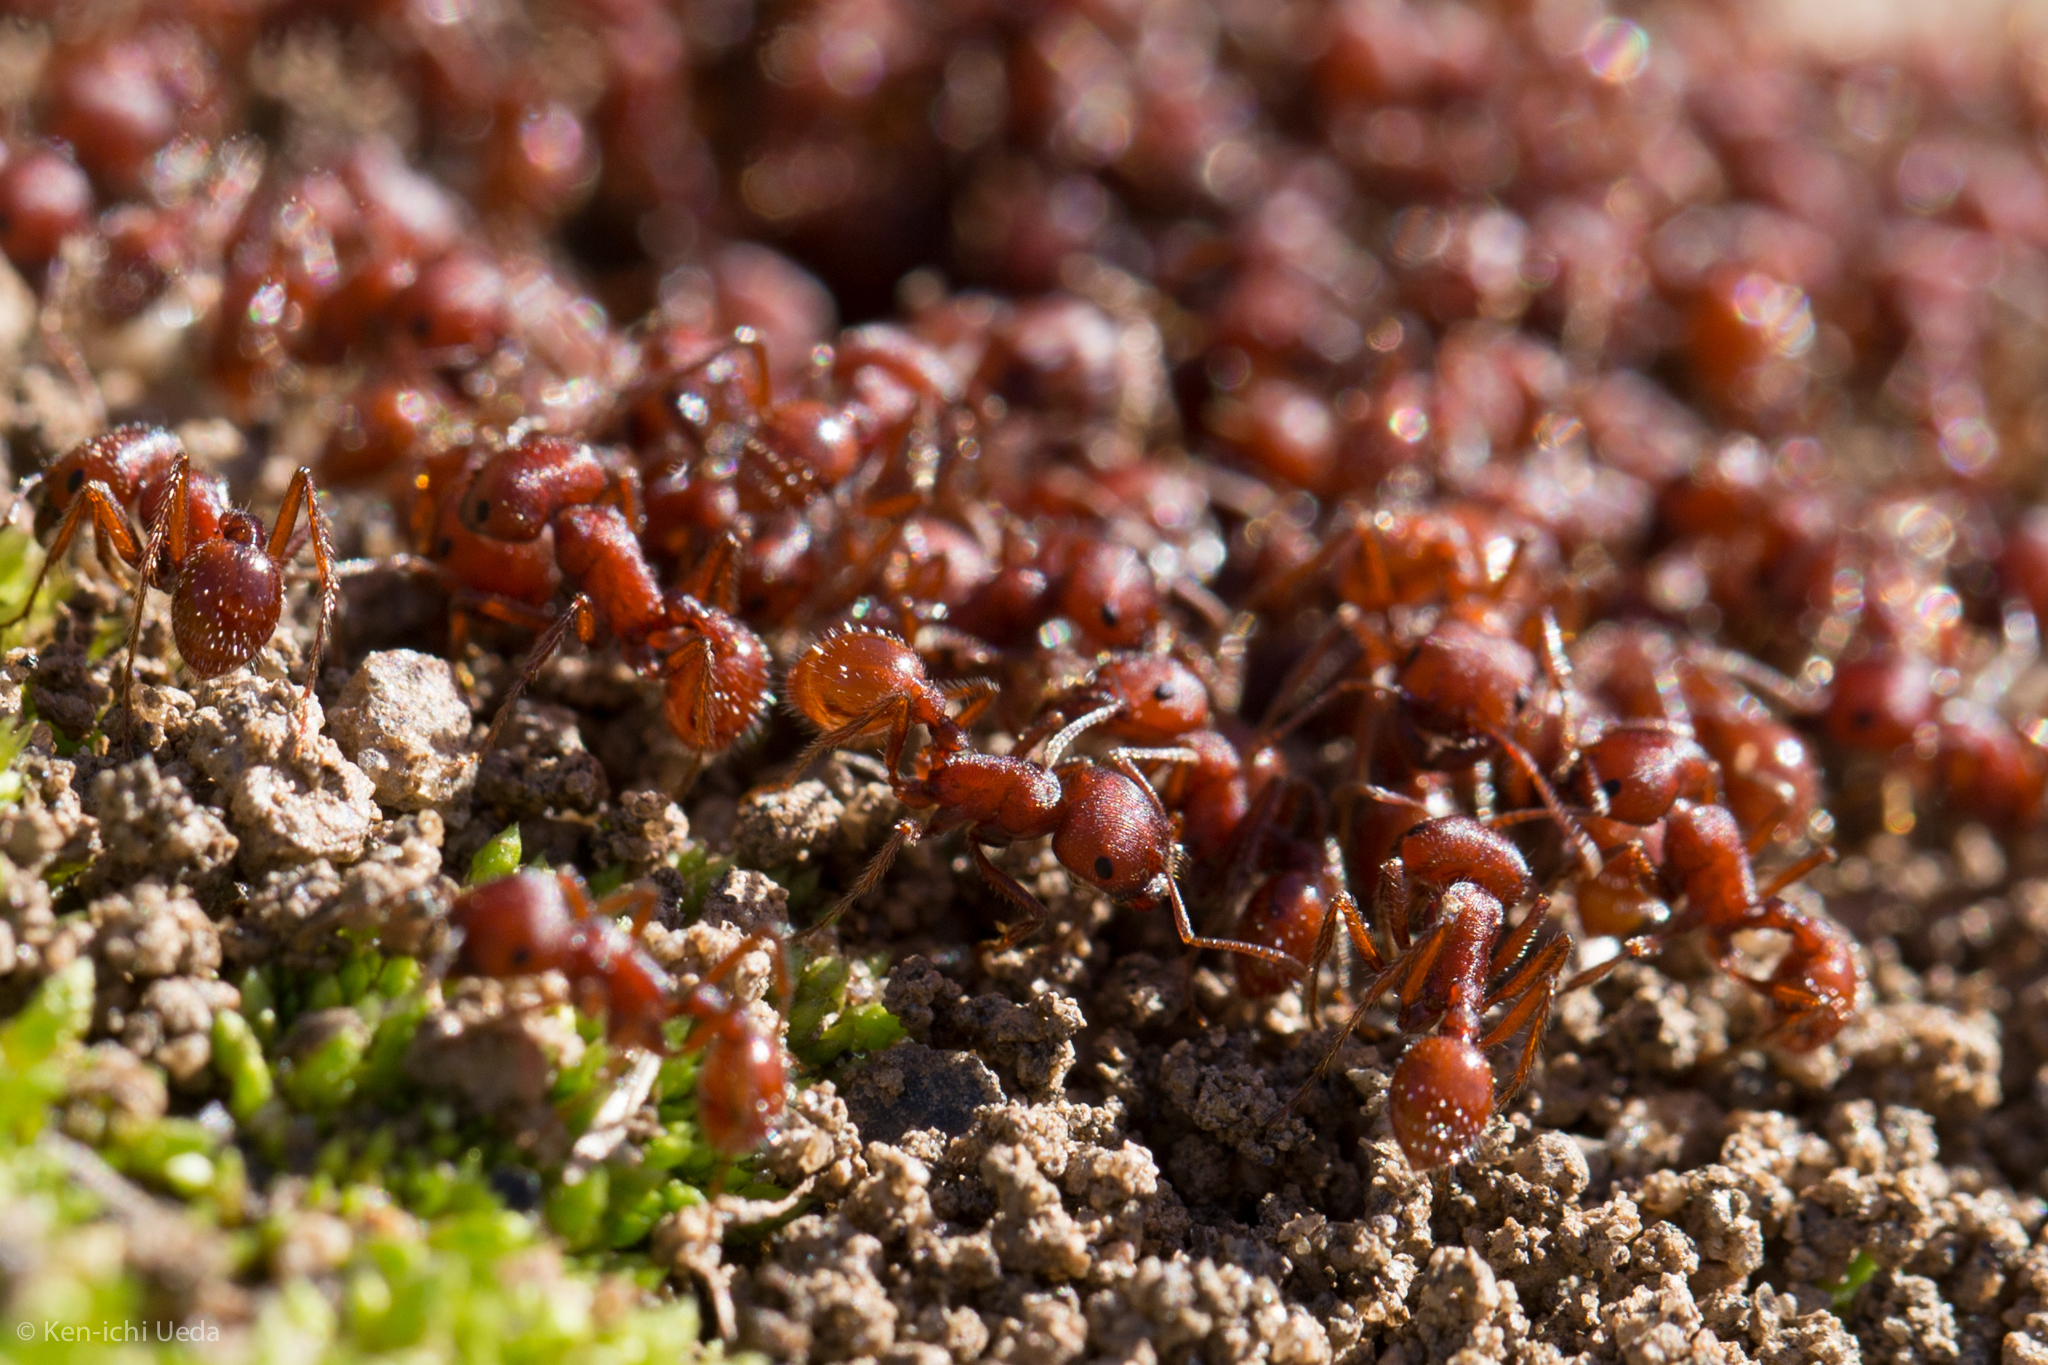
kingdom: Animalia
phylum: Arthropoda
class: Insecta
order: Hymenoptera
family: Formicidae
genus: Pogonomyrmex
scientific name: Pogonomyrmex subdentatus
